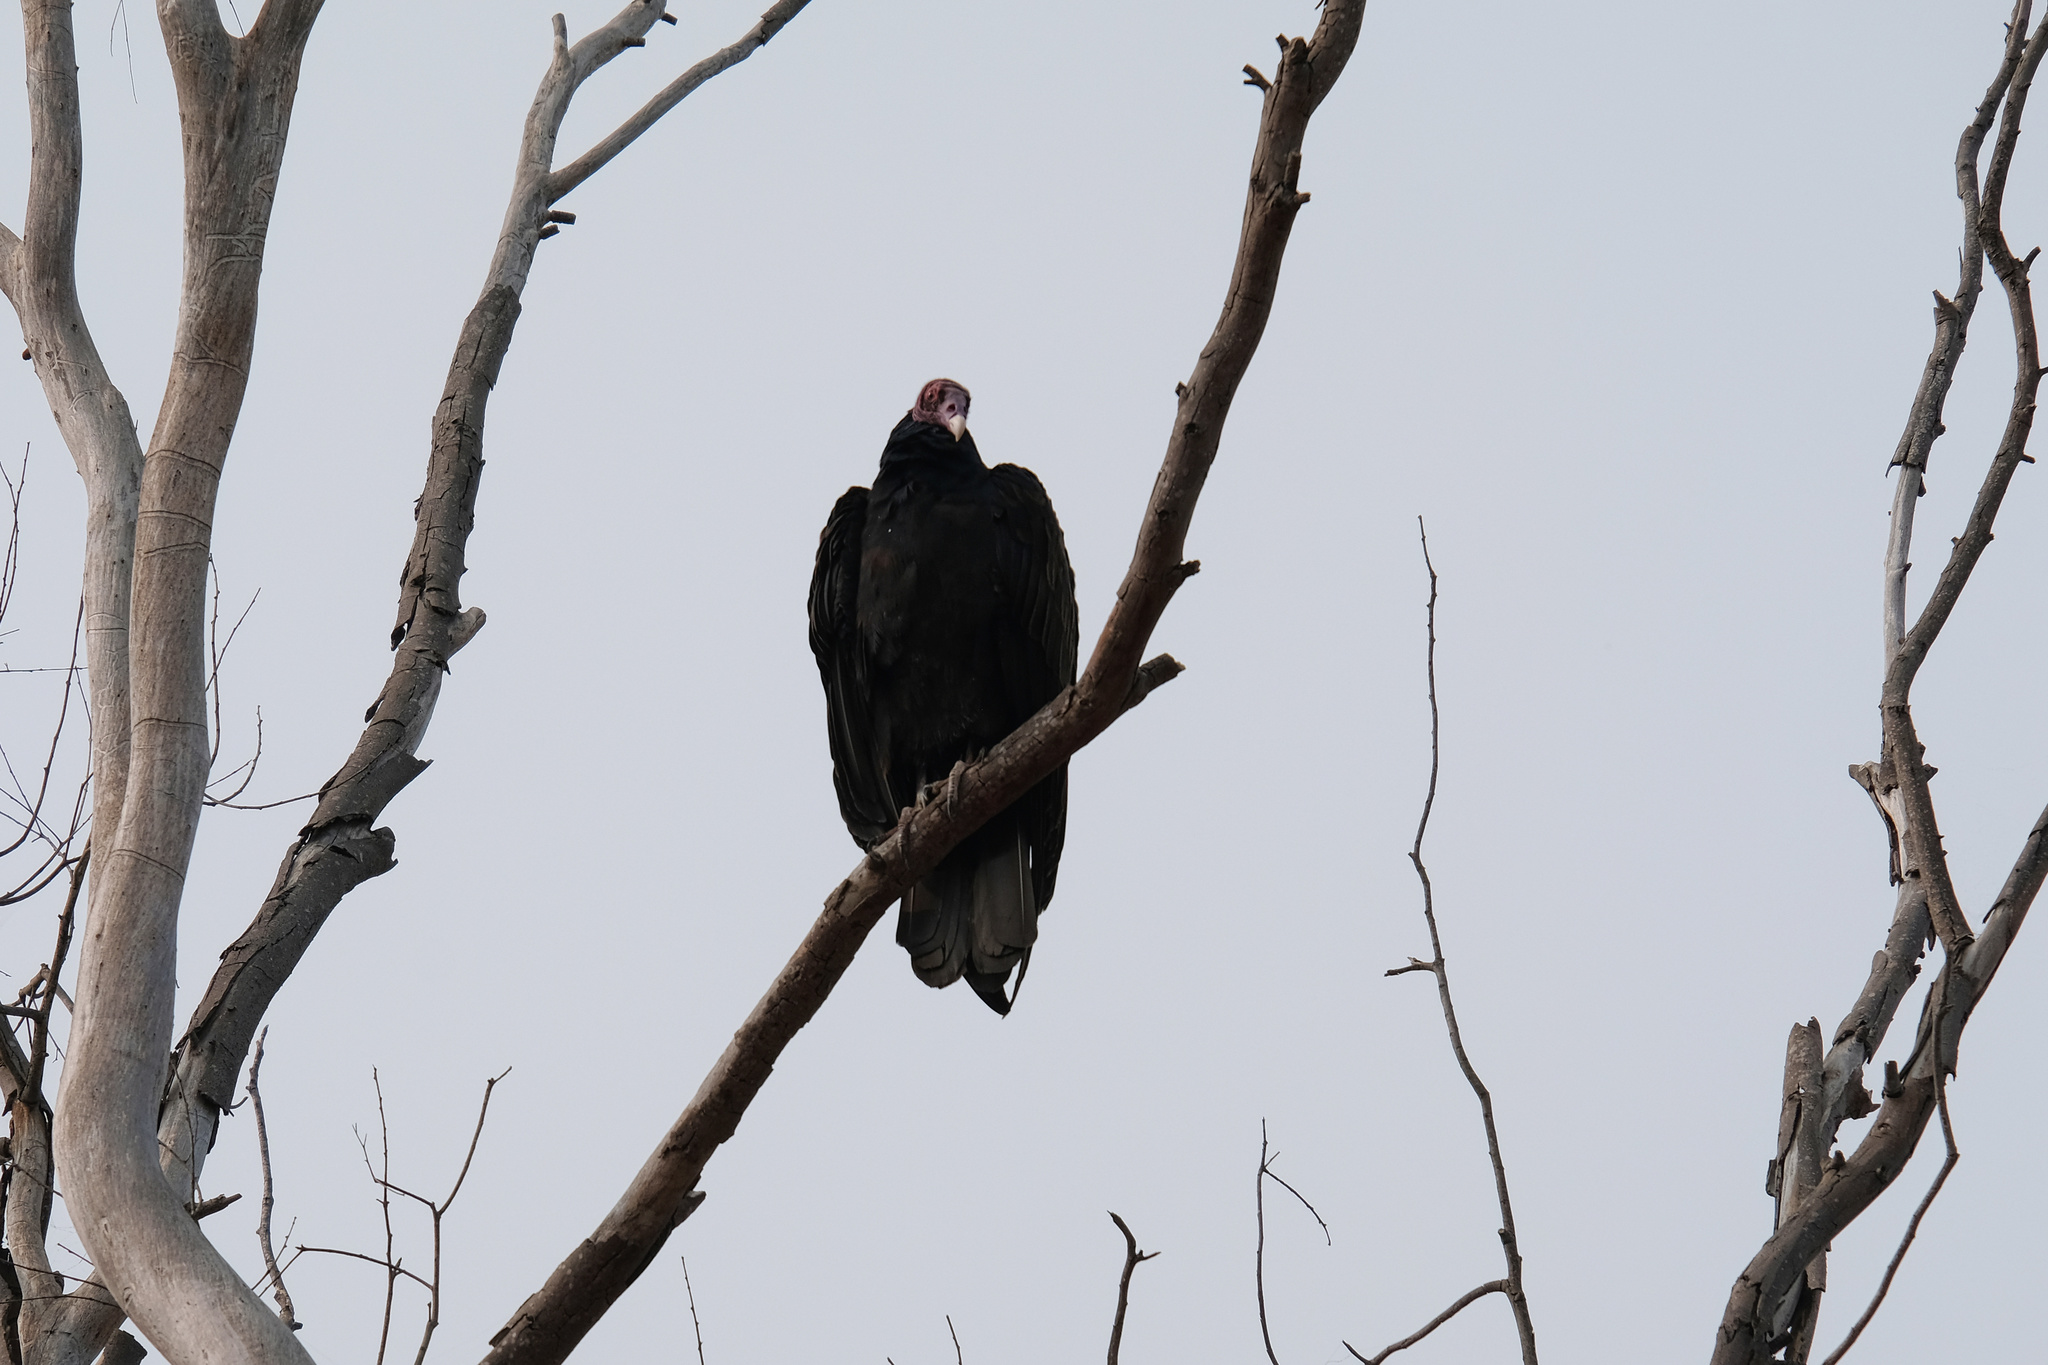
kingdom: Animalia
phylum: Chordata
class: Aves
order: Accipitriformes
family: Cathartidae
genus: Cathartes
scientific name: Cathartes aura
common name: Turkey vulture
